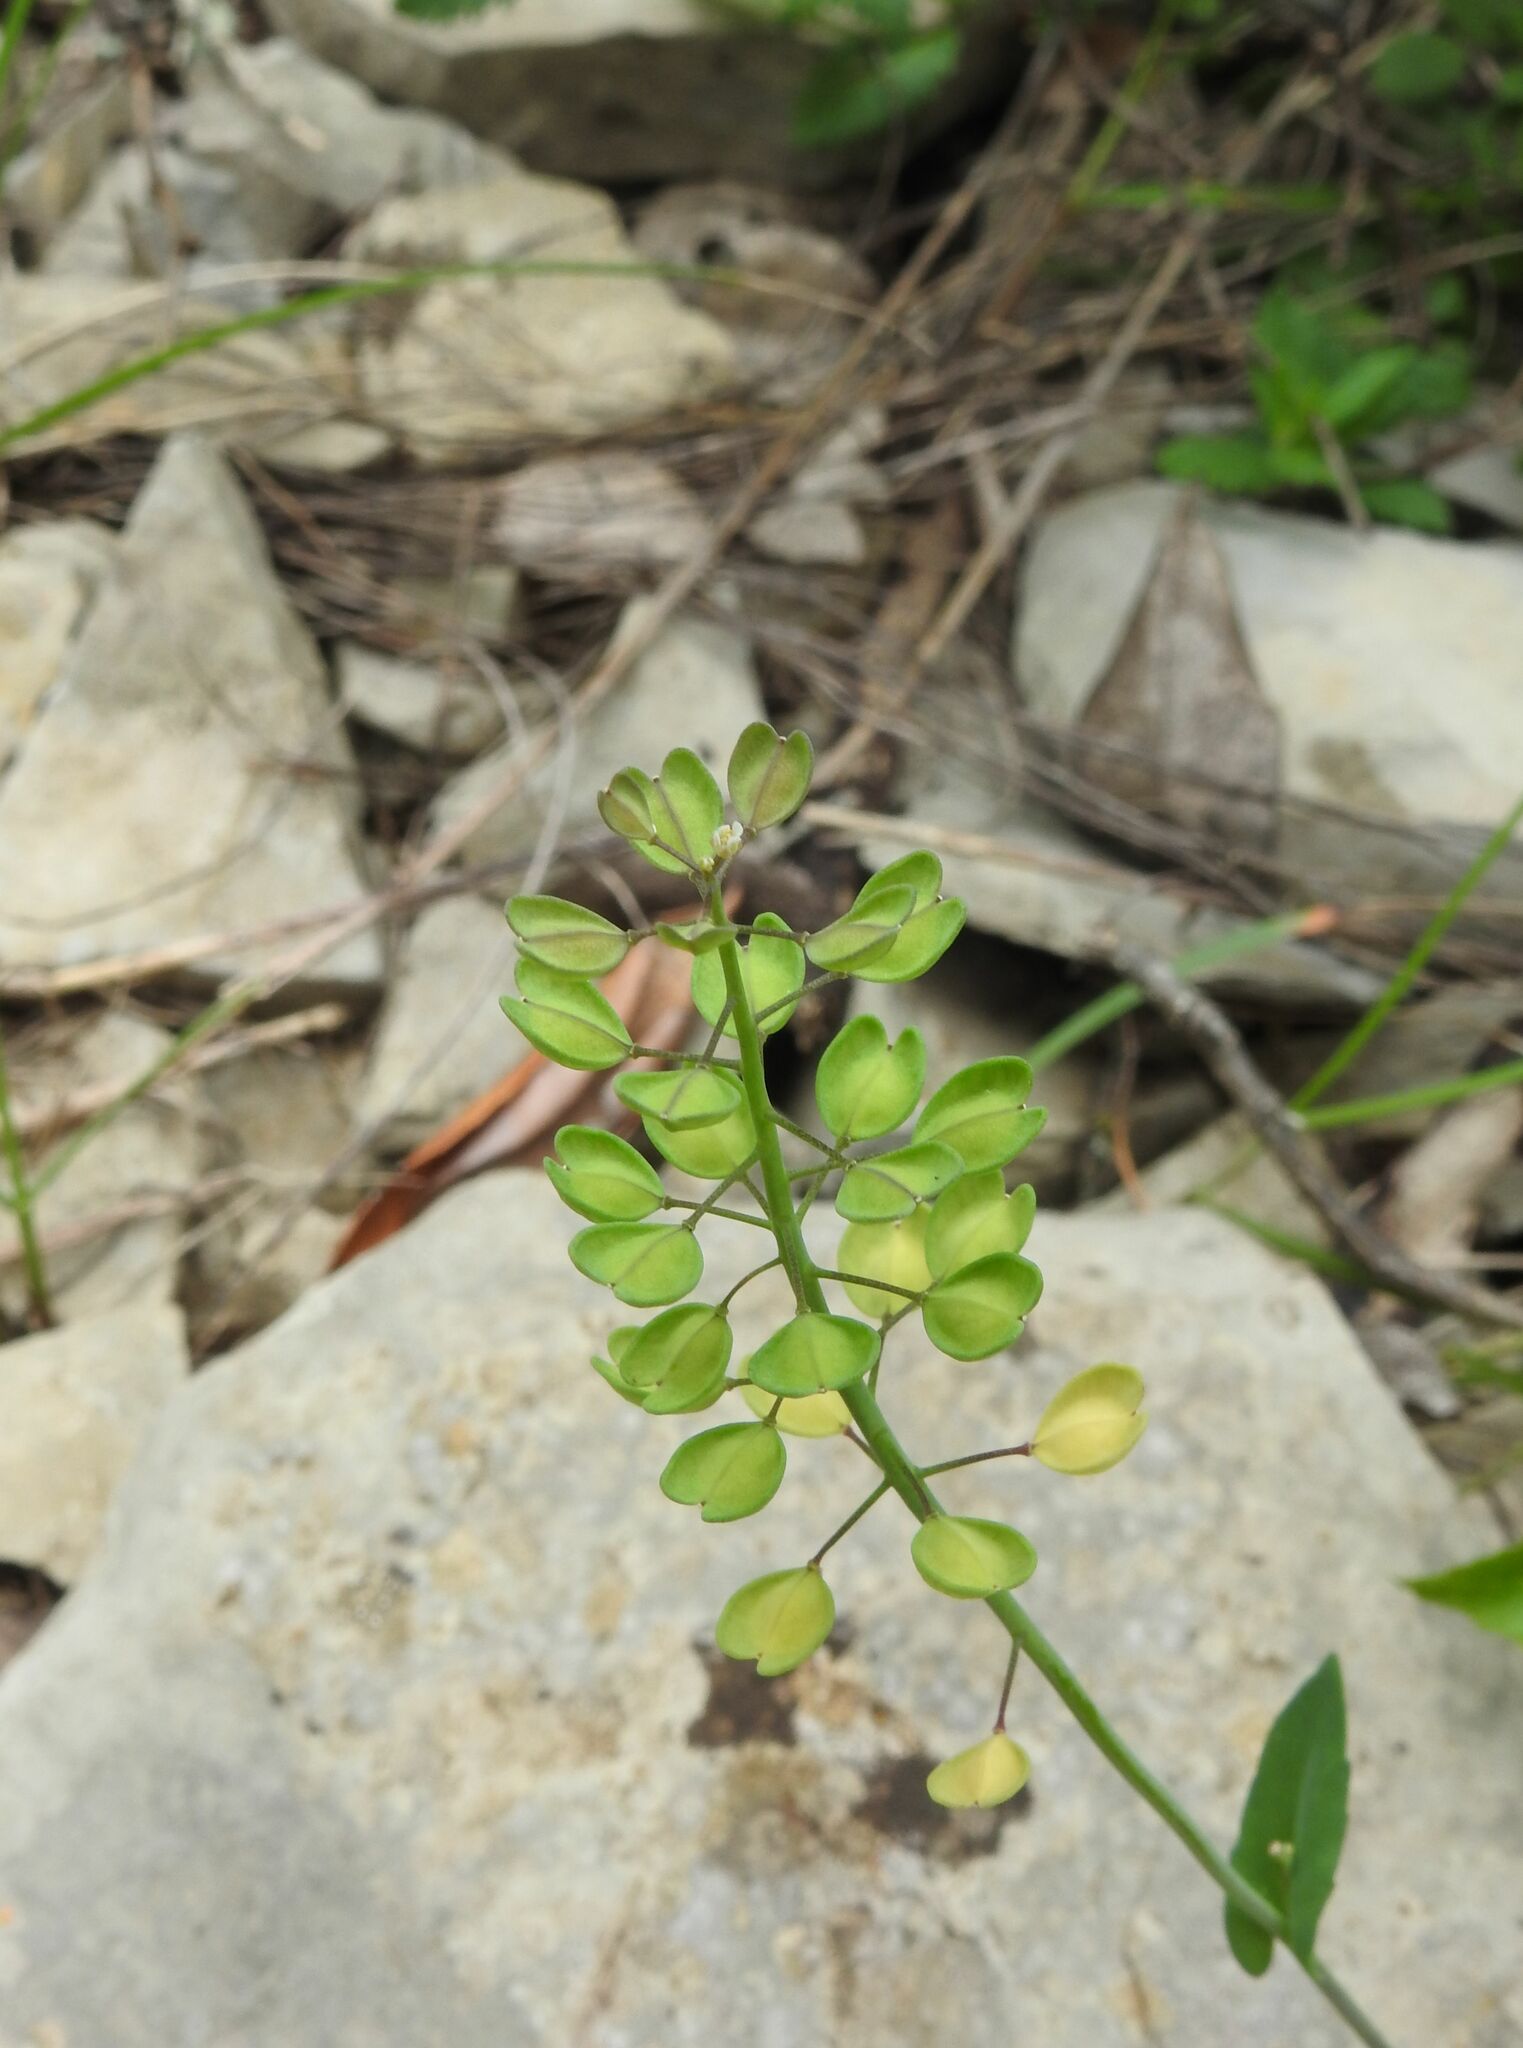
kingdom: Plantae
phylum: Tracheophyta
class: Magnoliopsida
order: Brassicales
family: Brassicaceae
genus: Noccaea
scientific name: Noccaea perfoliata
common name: Perfoliate pennycress
